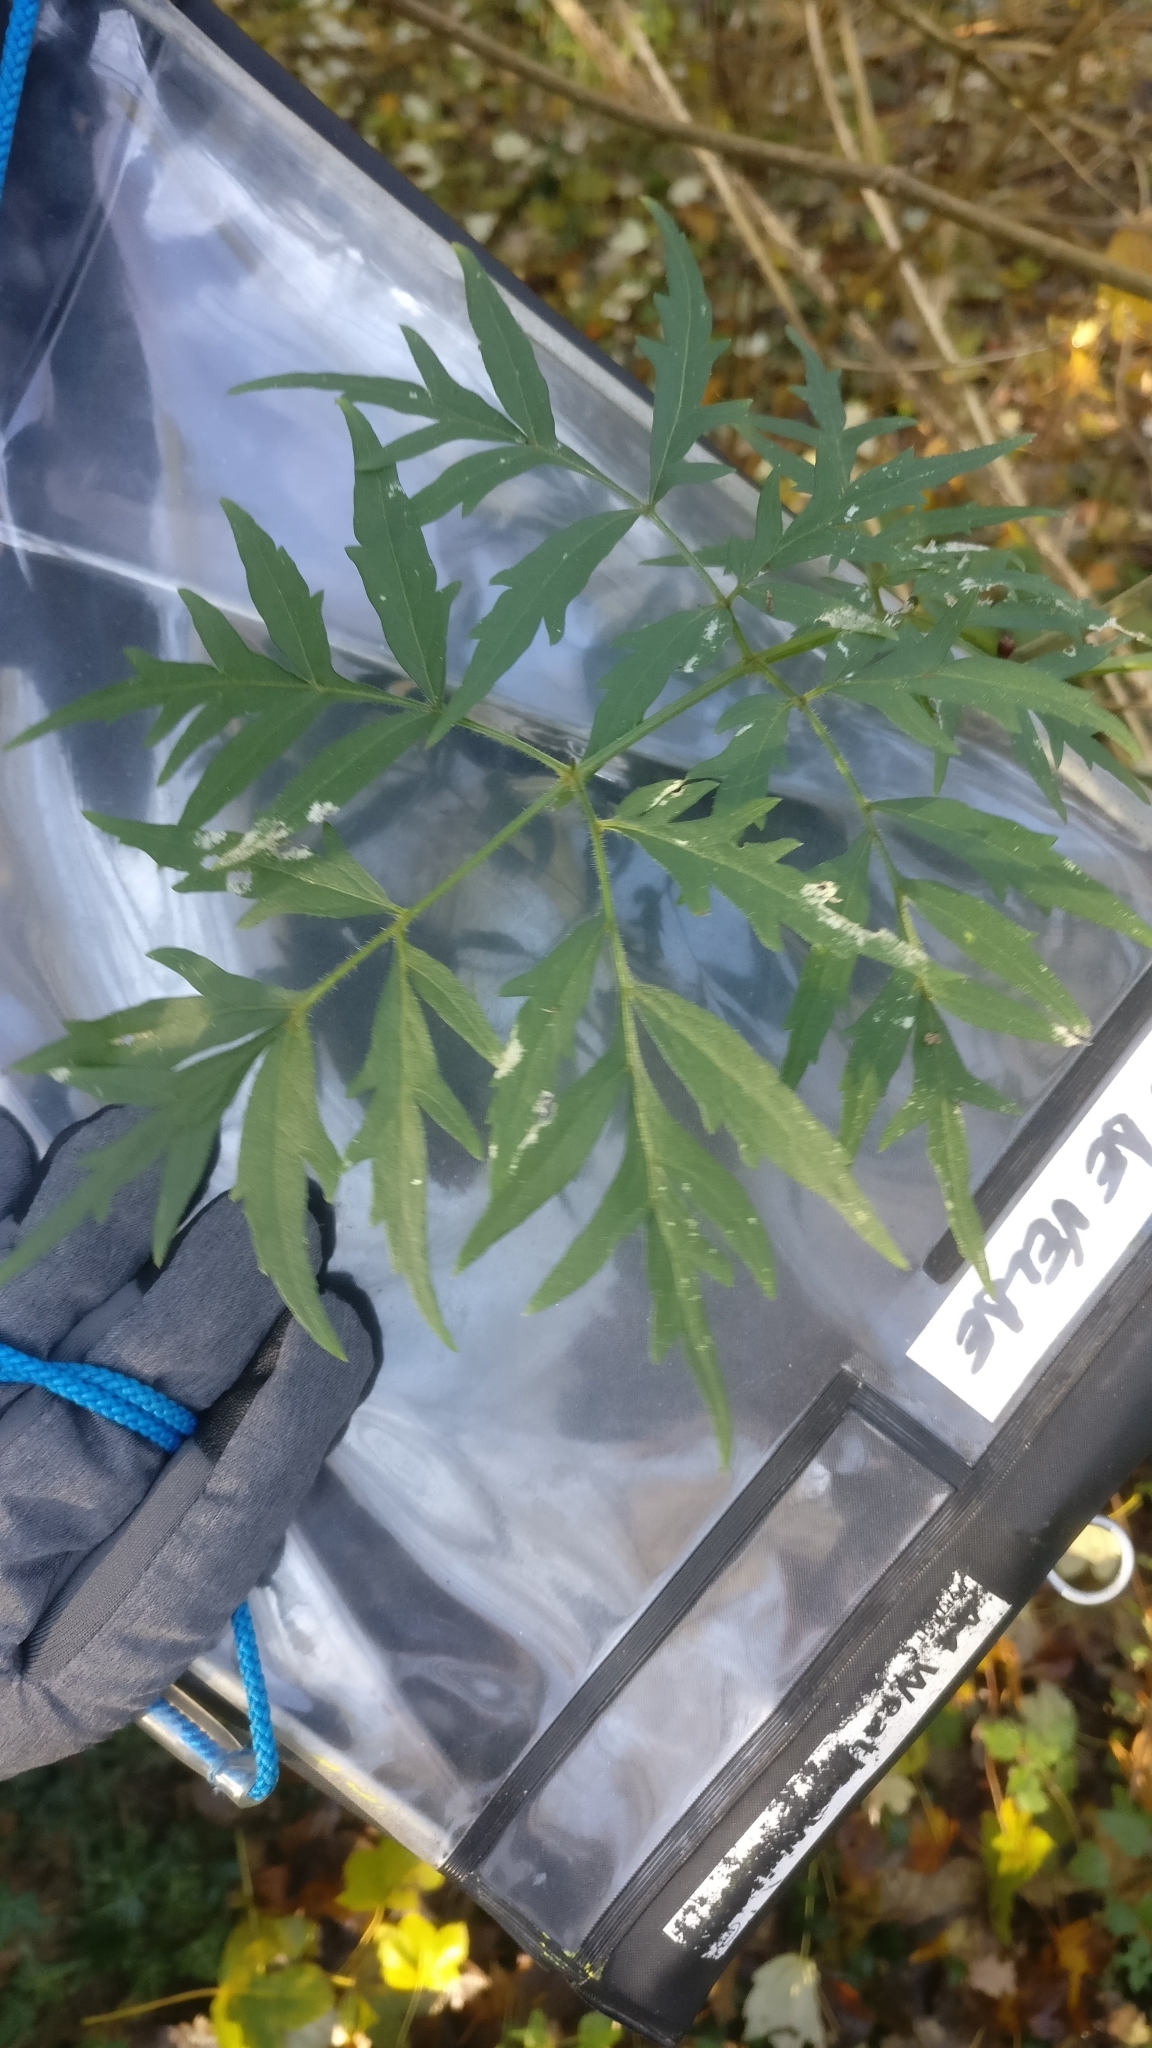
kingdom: Plantae
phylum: Tracheophyta
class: Magnoliopsida
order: Dipsacales
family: Viburnaceae
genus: Sambucus
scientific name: Sambucus nigra
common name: Elder
